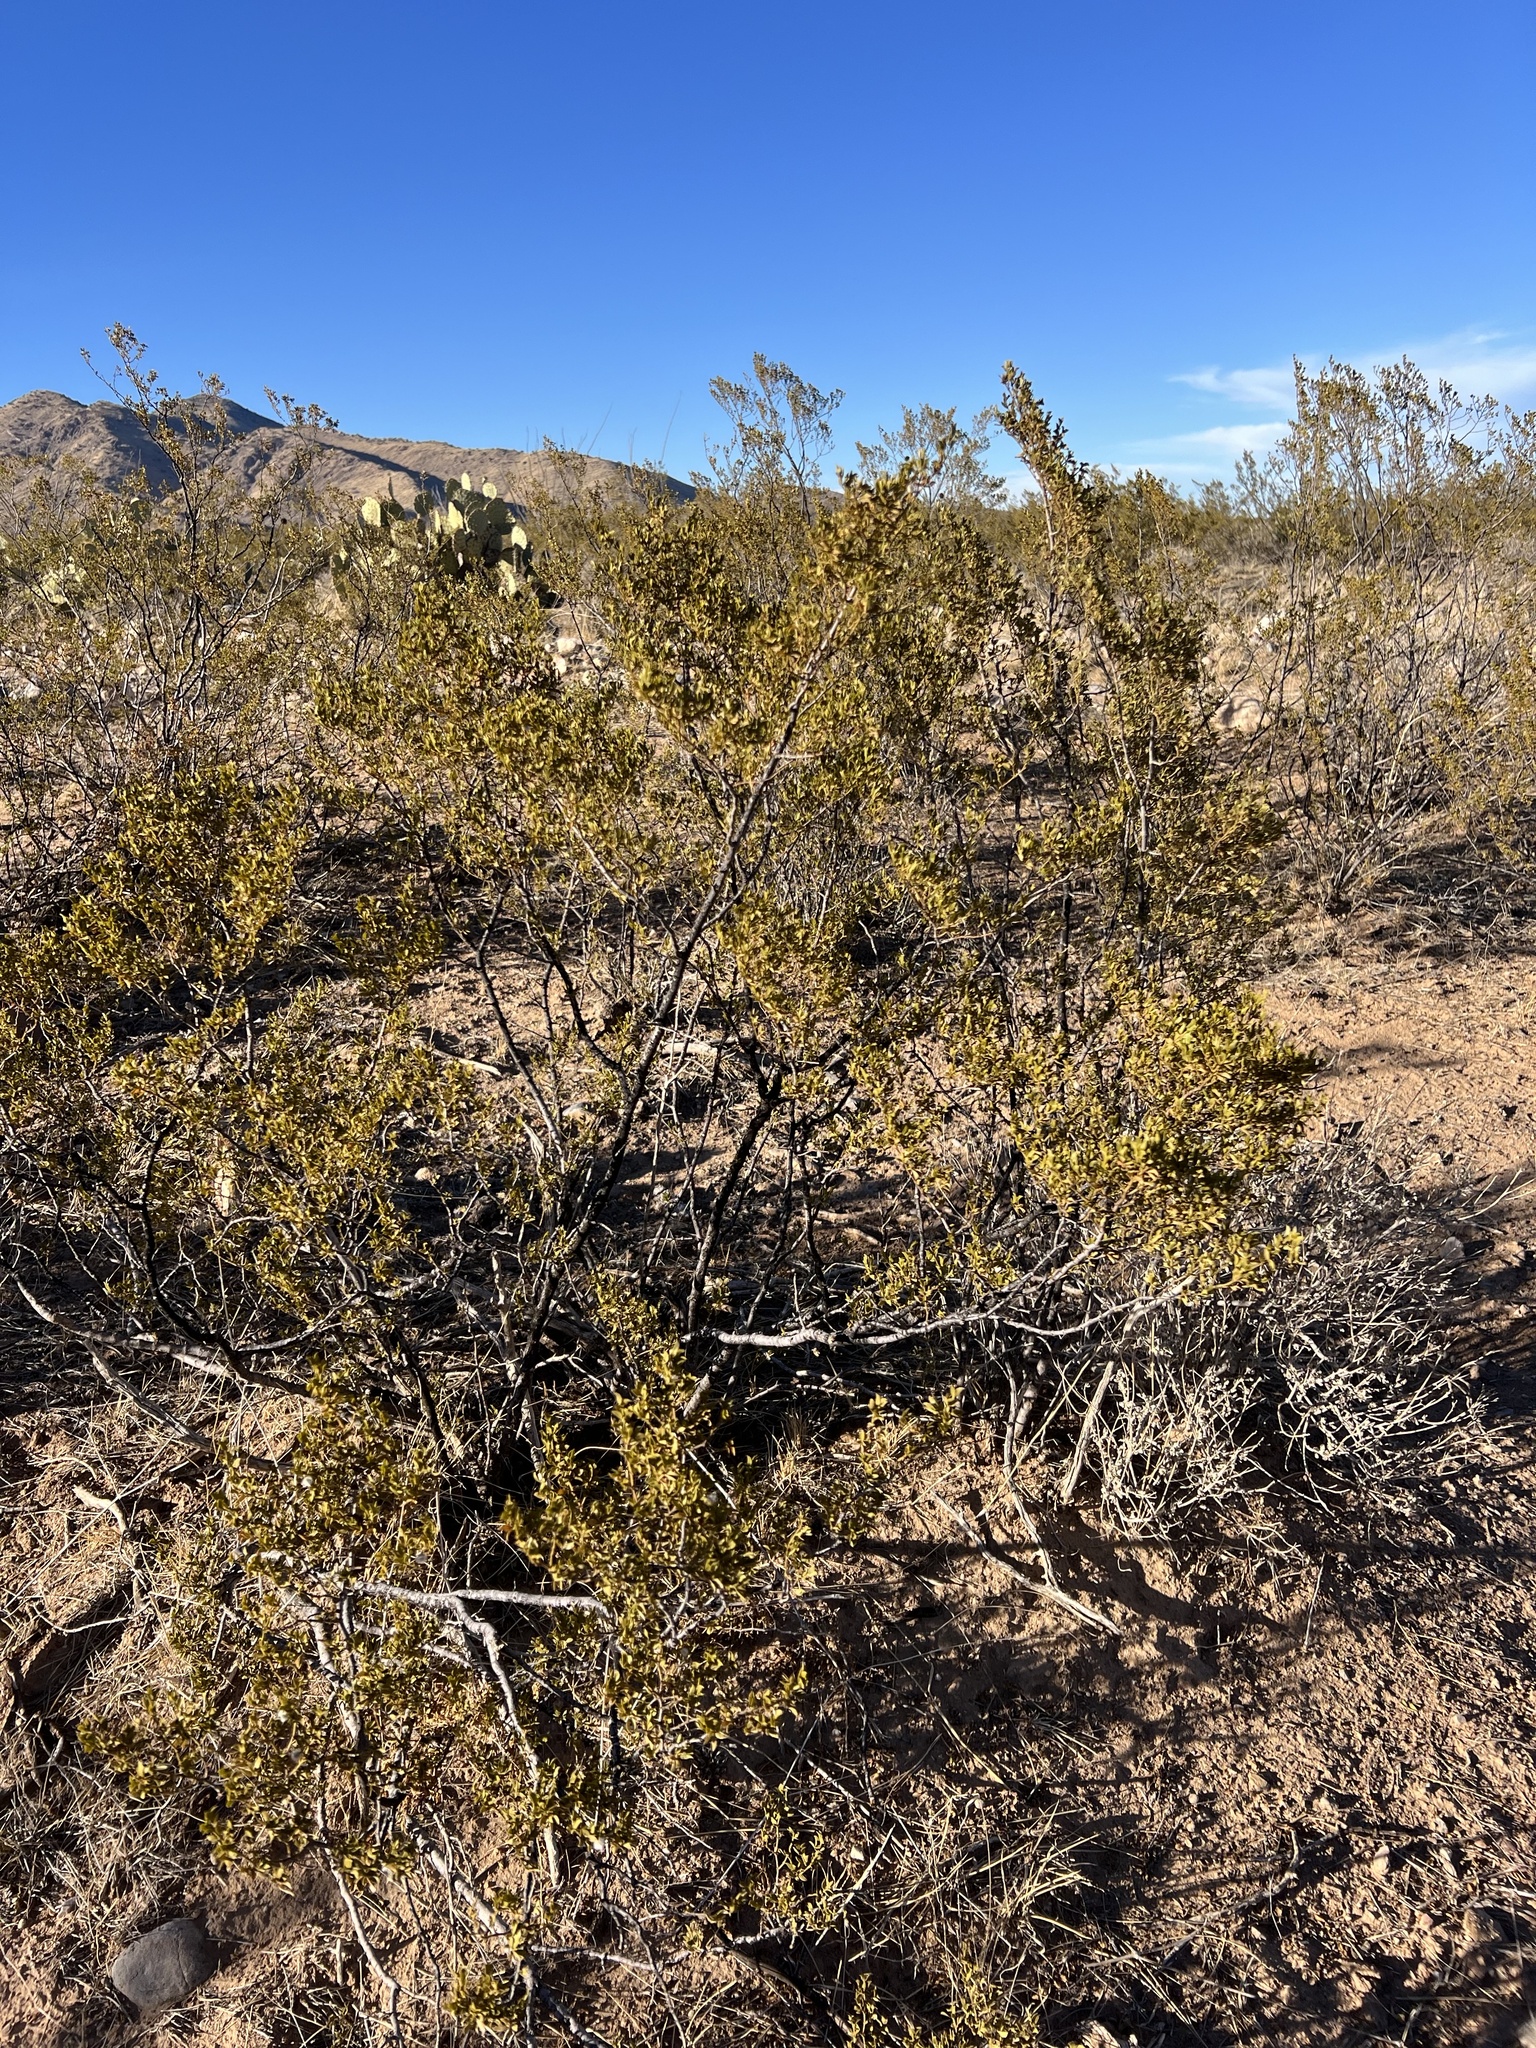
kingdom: Plantae
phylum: Tracheophyta
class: Magnoliopsida
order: Zygophyllales
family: Zygophyllaceae
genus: Larrea
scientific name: Larrea tridentata
